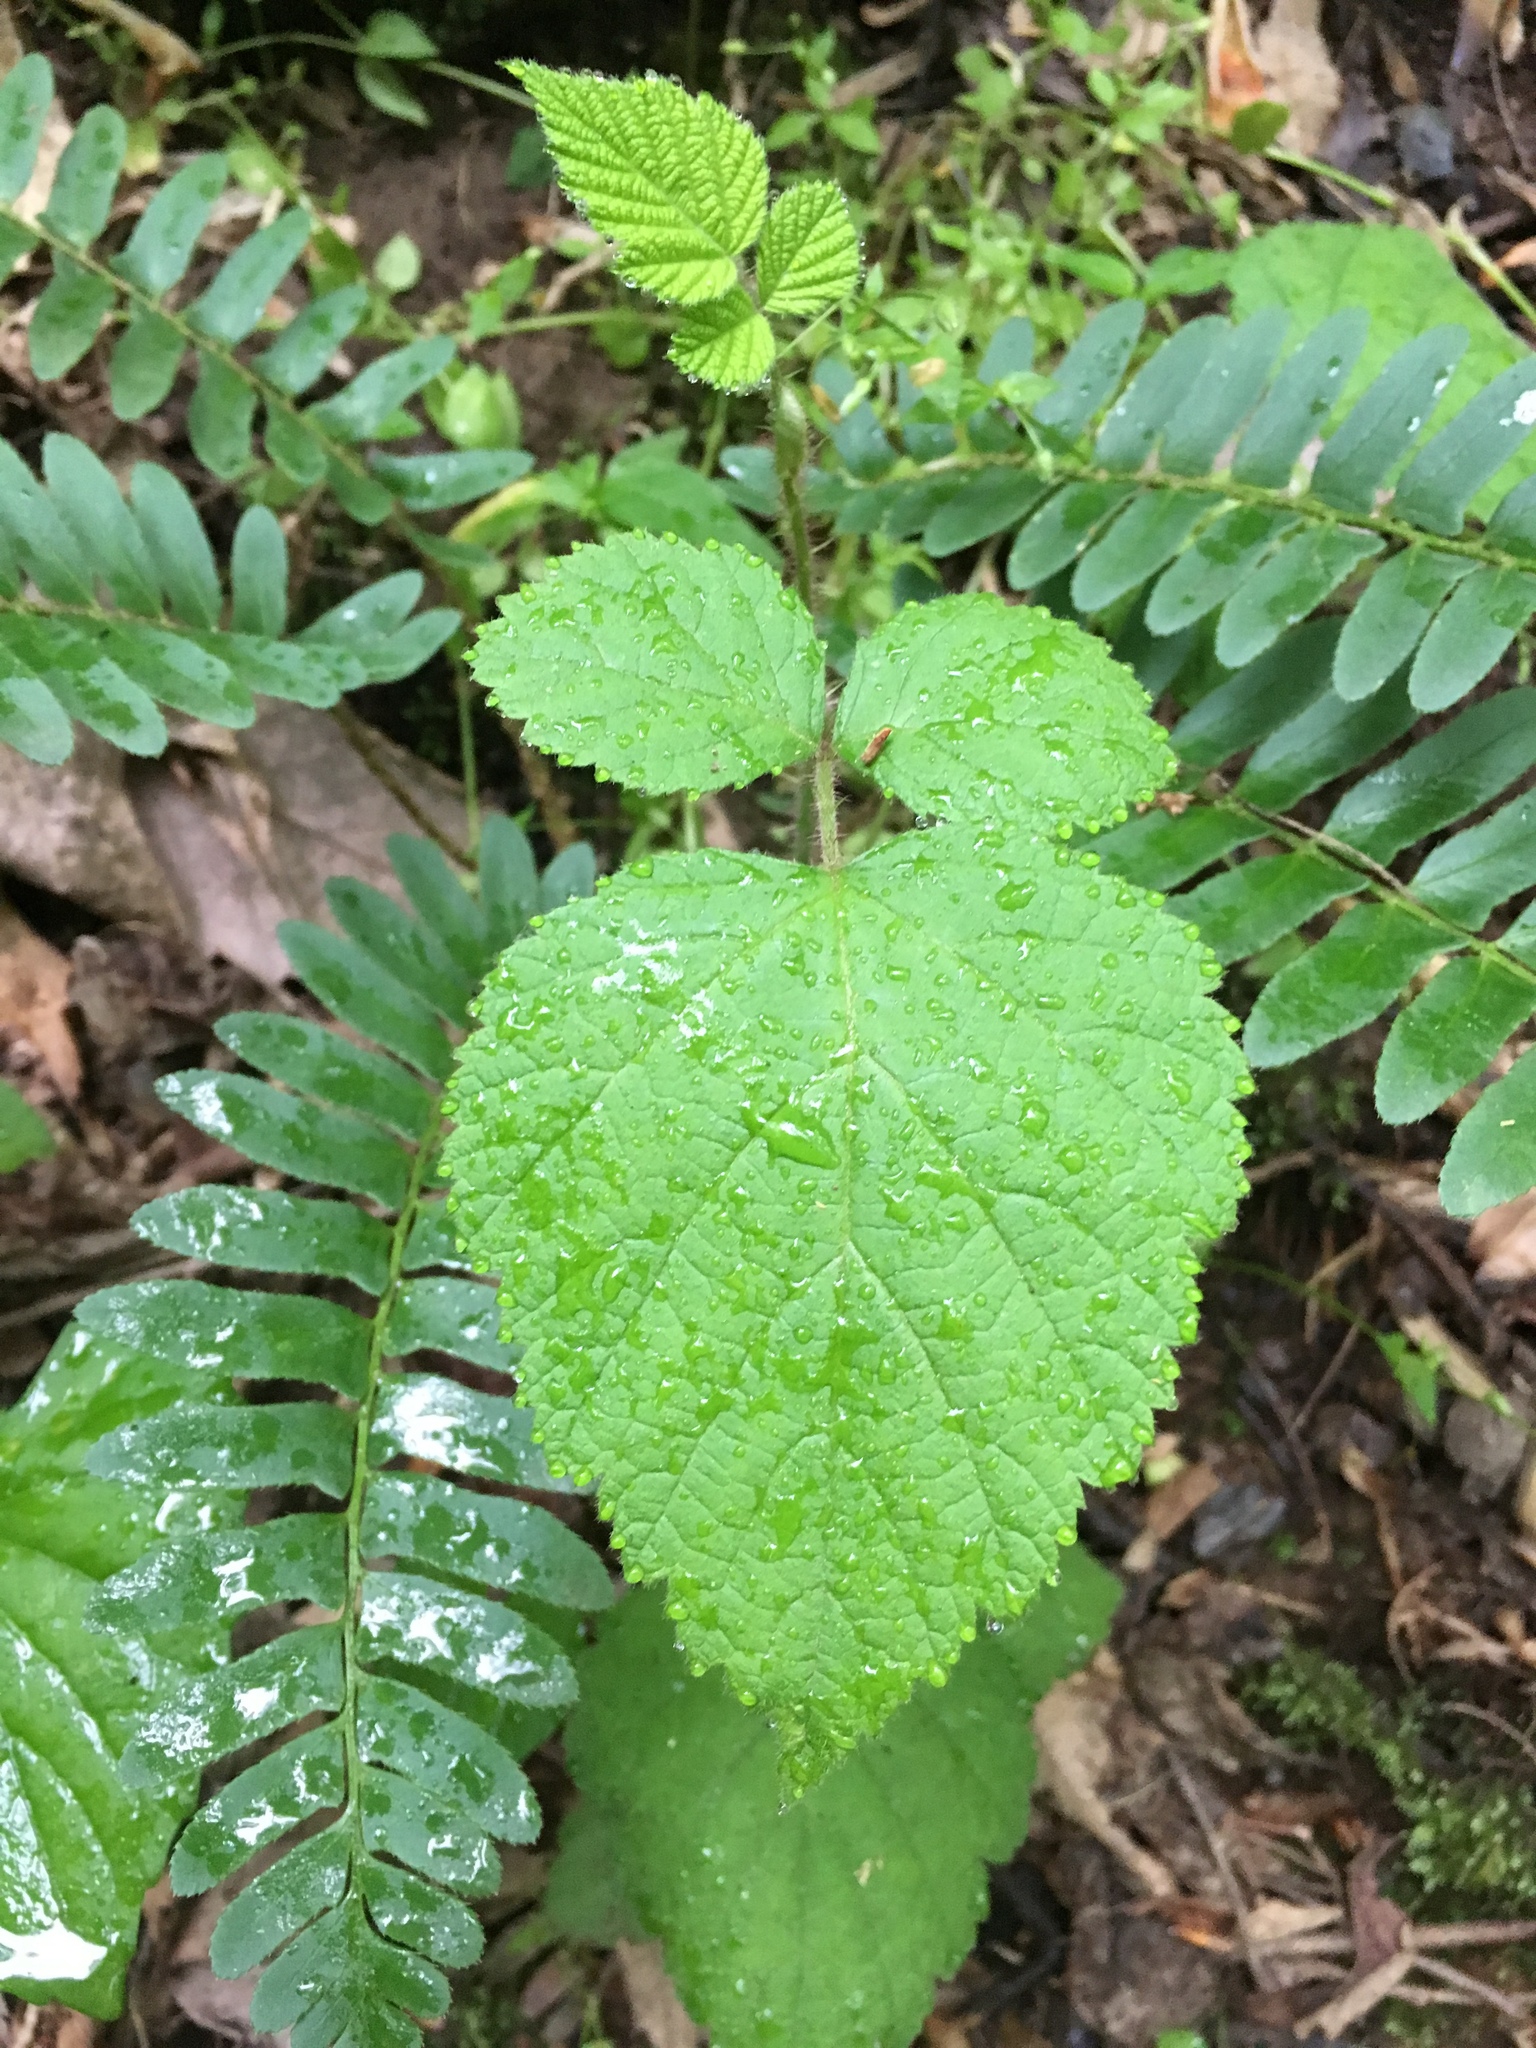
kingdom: Plantae
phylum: Tracheophyta
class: Magnoliopsida
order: Rosales
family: Rosaceae
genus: Rubus
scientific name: Rubus phoenicolasius
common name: Japanese wineberry
